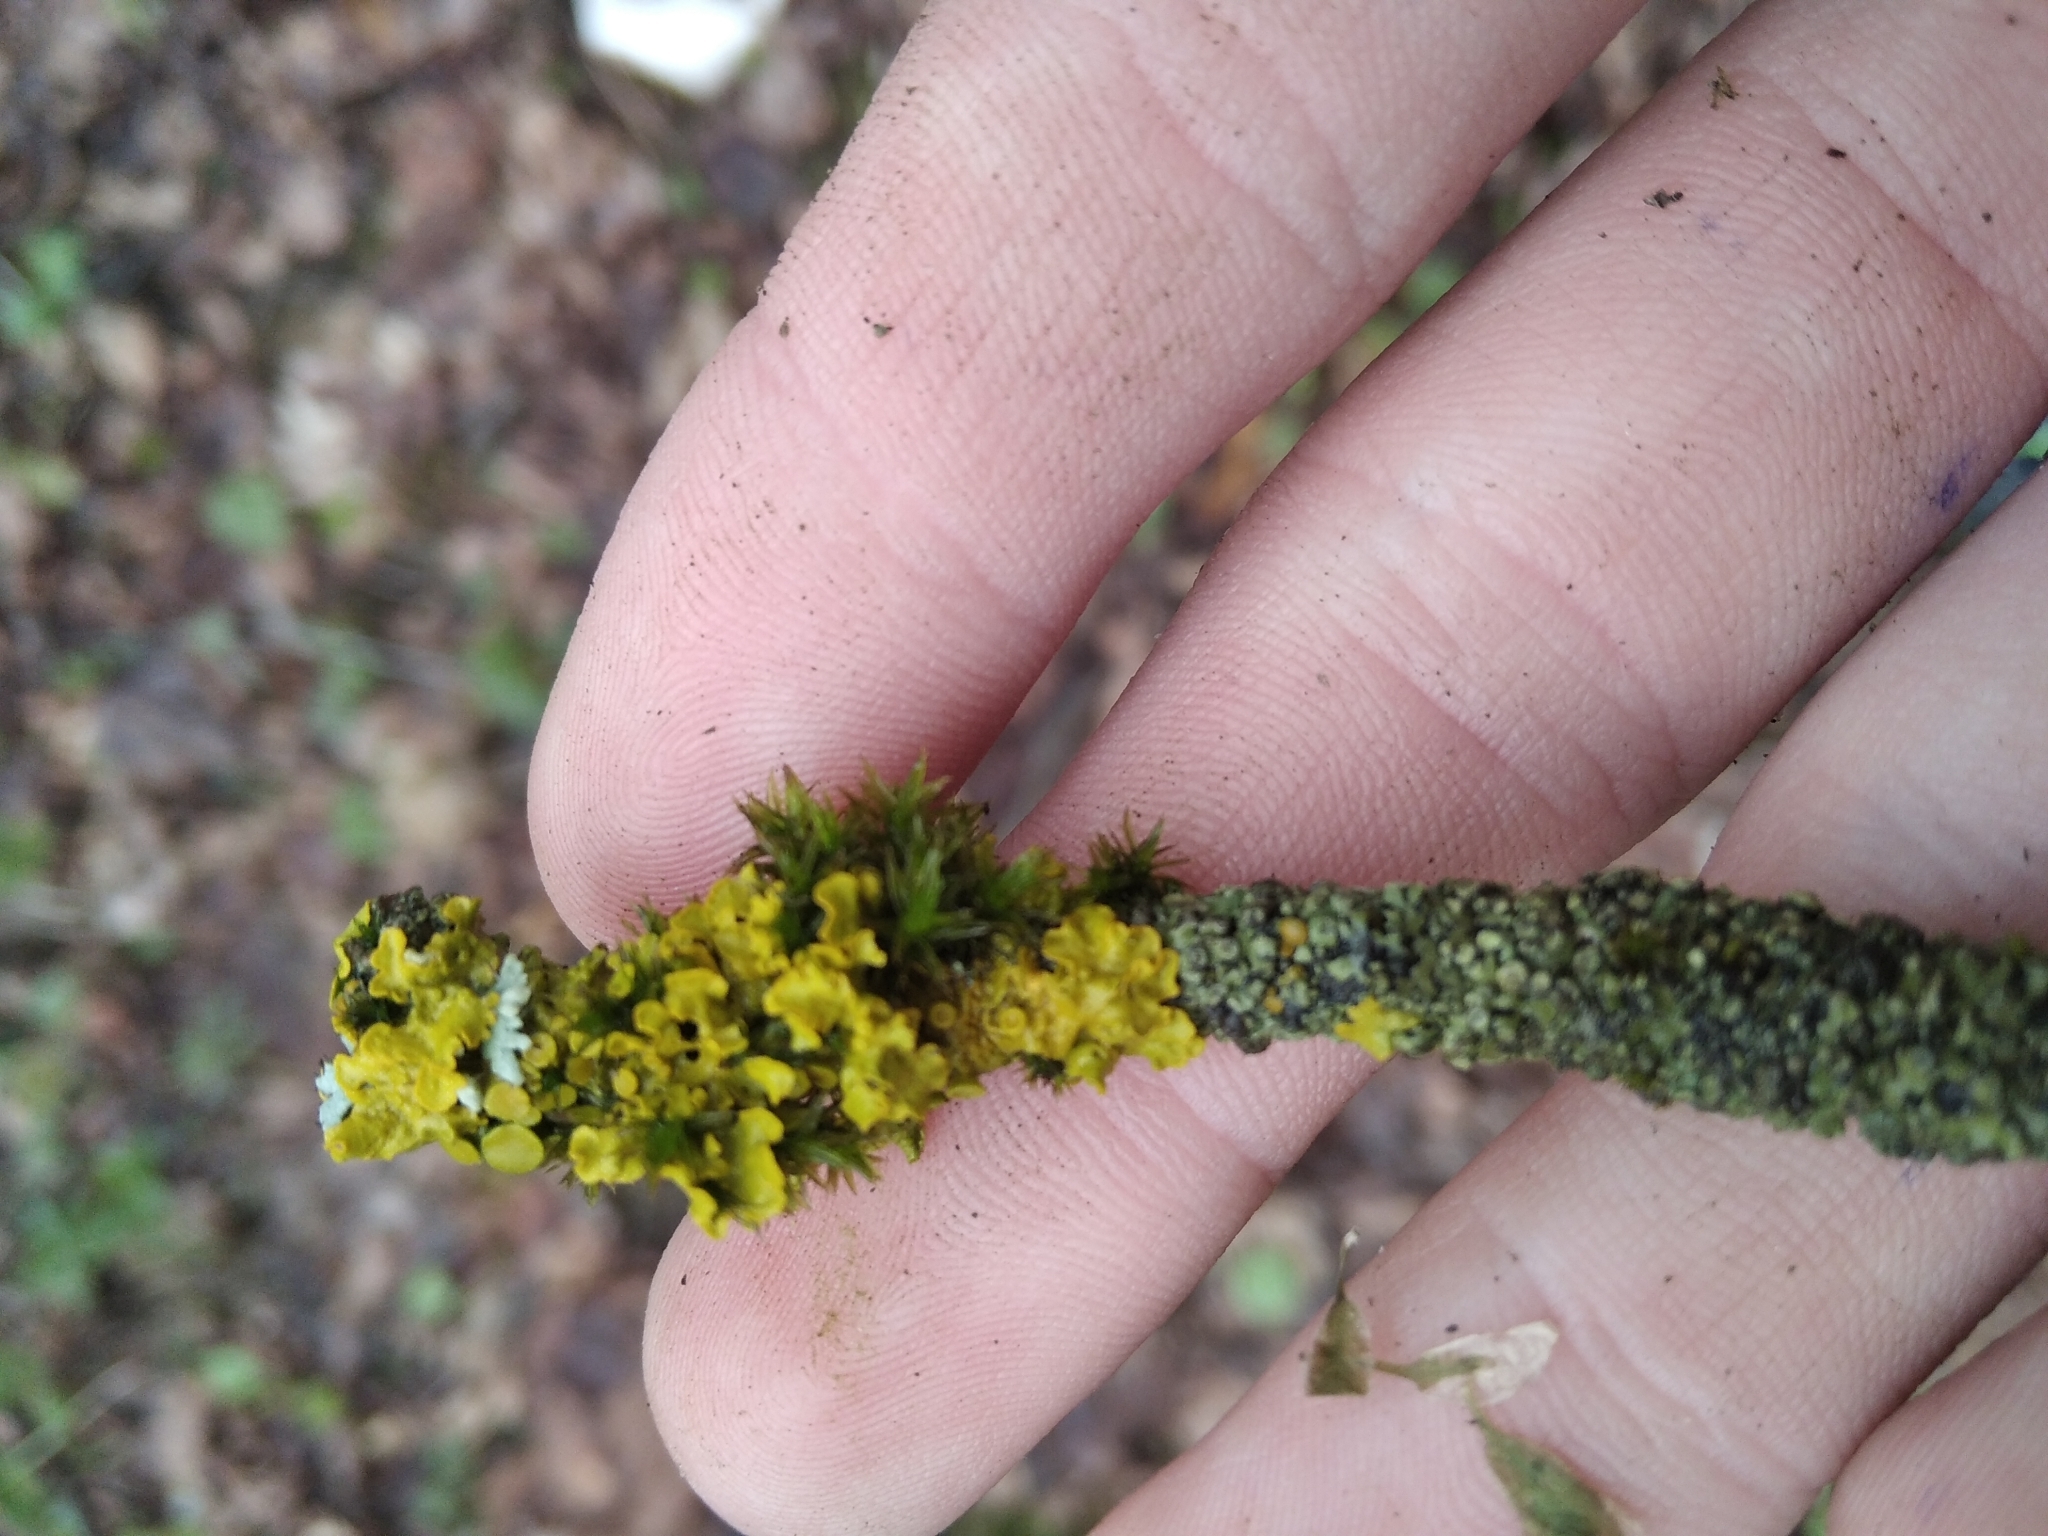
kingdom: Fungi
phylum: Ascomycota
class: Lecanoromycetes
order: Teloschistales
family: Teloschistaceae
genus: Xanthoria
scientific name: Xanthoria parietina
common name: Common orange lichen
